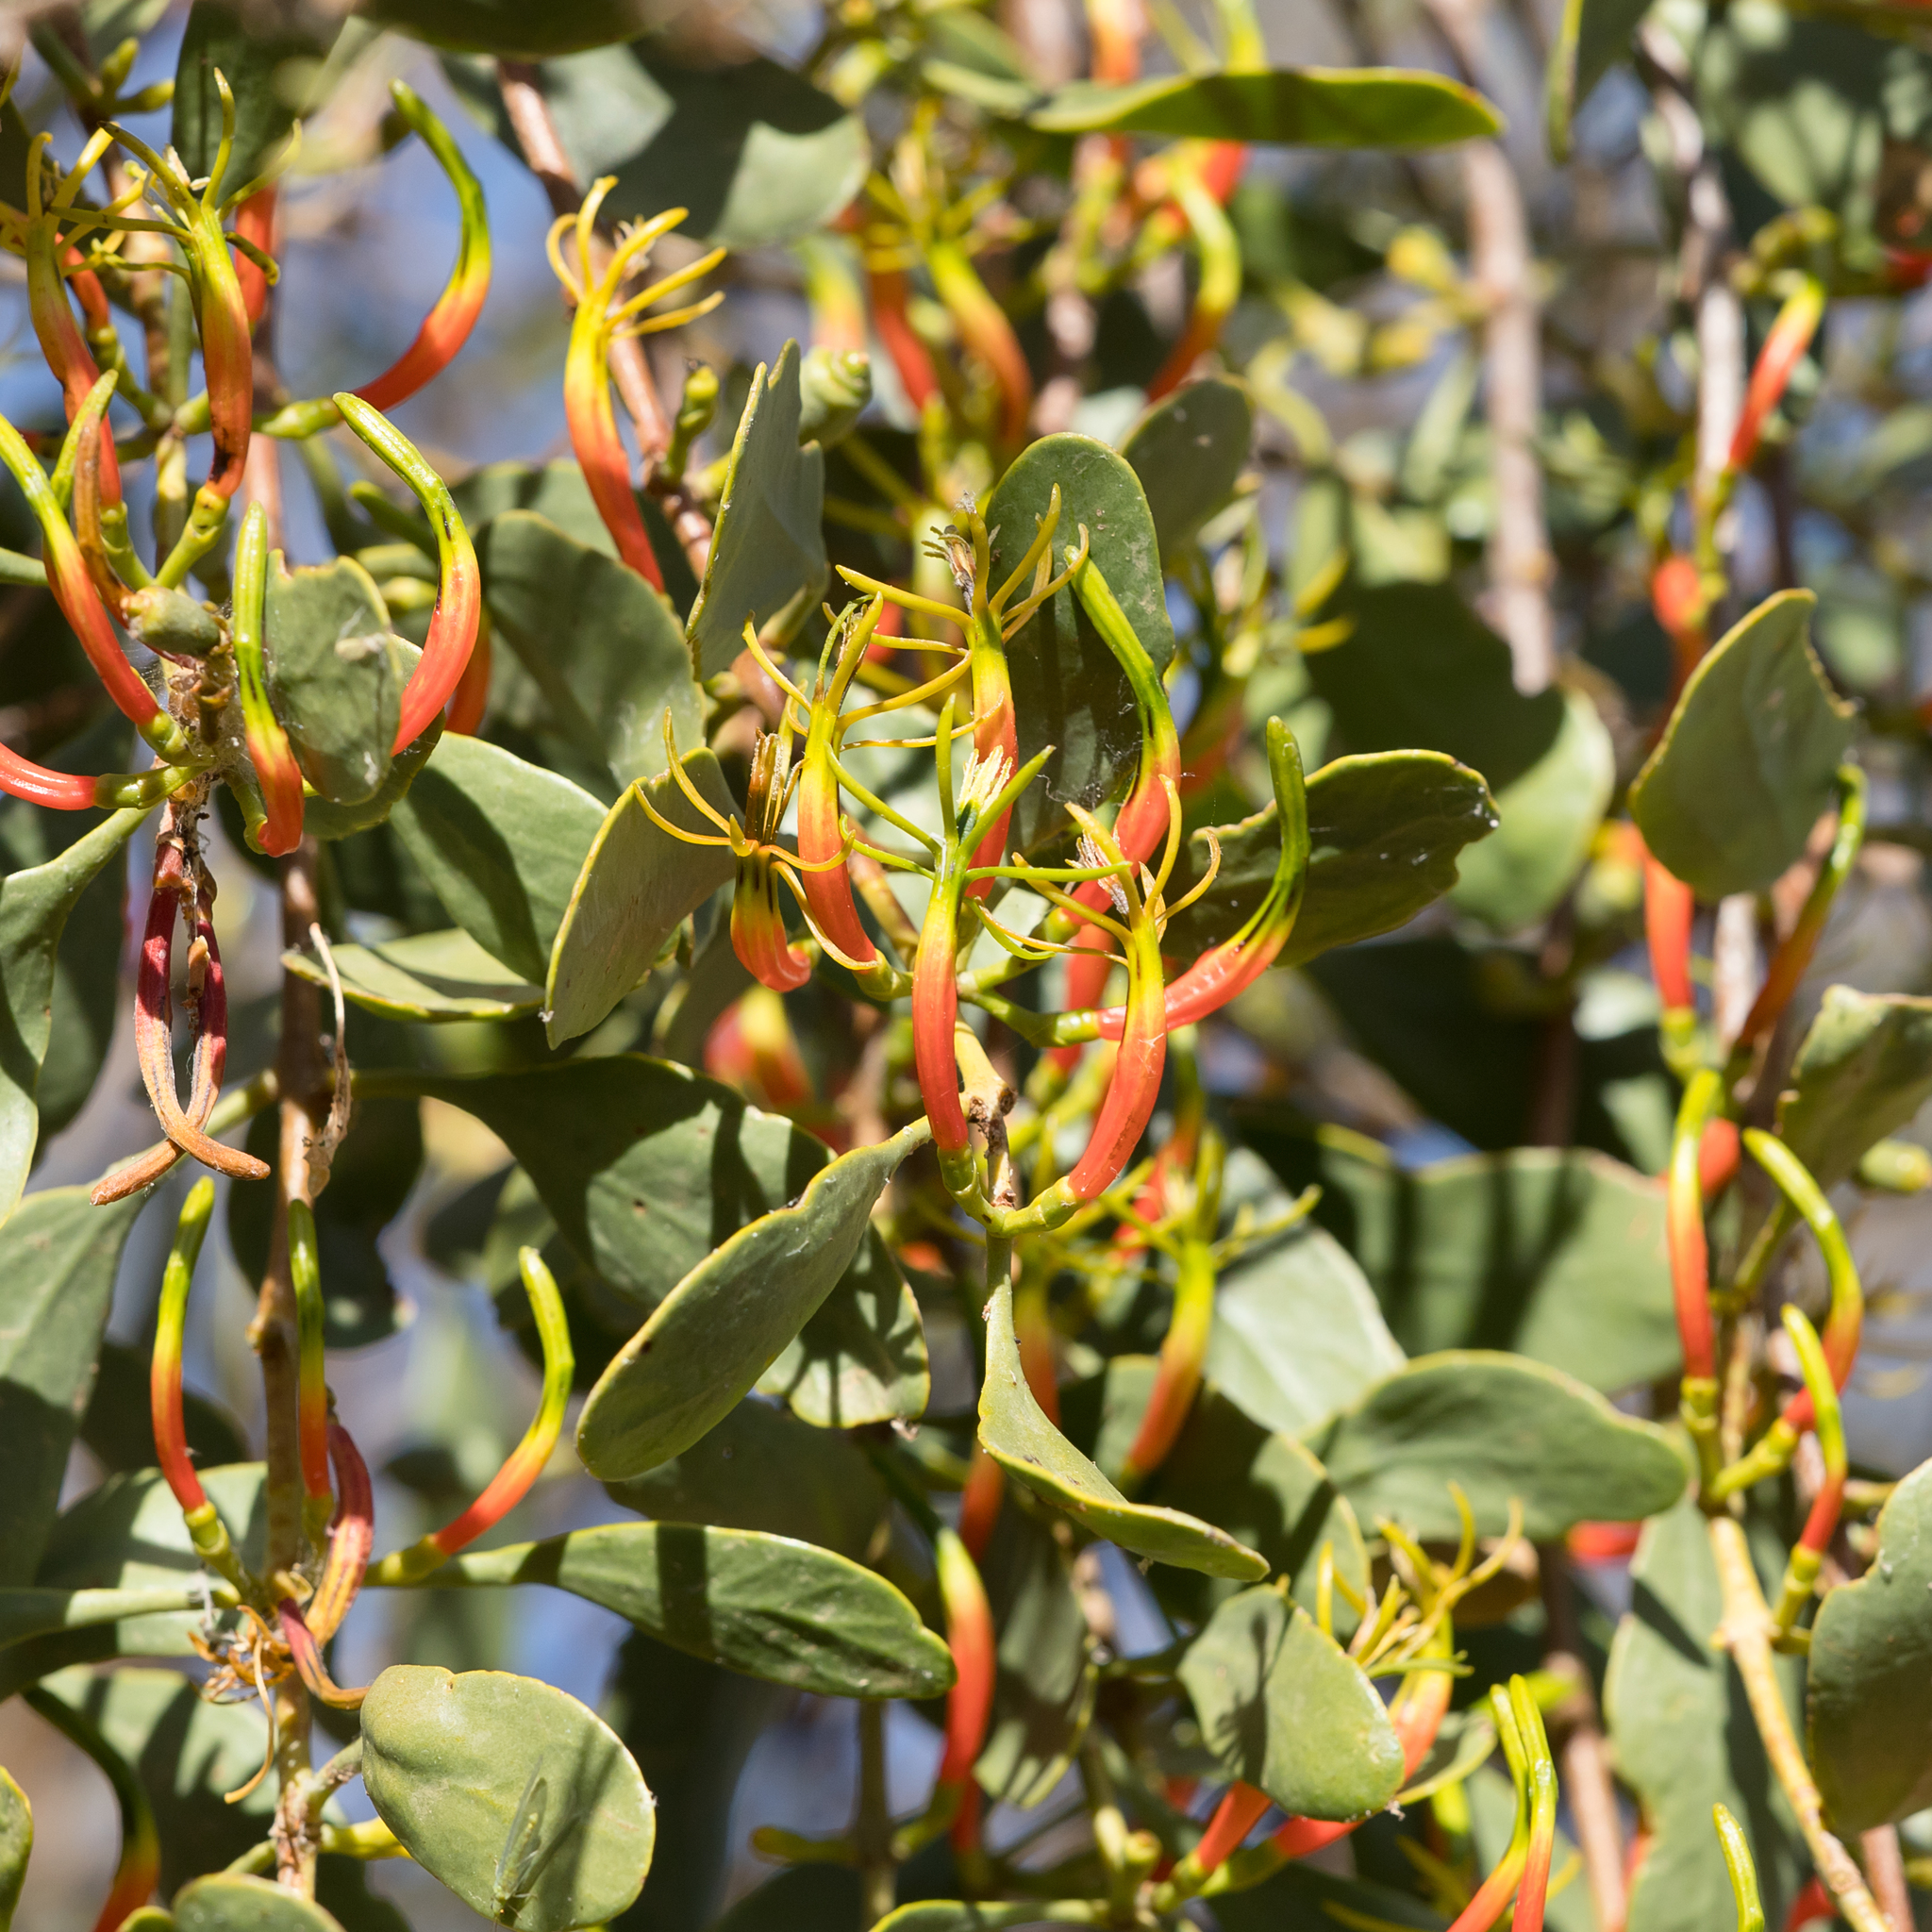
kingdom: Plantae
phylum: Tracheophyta
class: Magnoliopsida
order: Santalales
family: Loranthaceae
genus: Lysiana
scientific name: Lysiana spathulata
